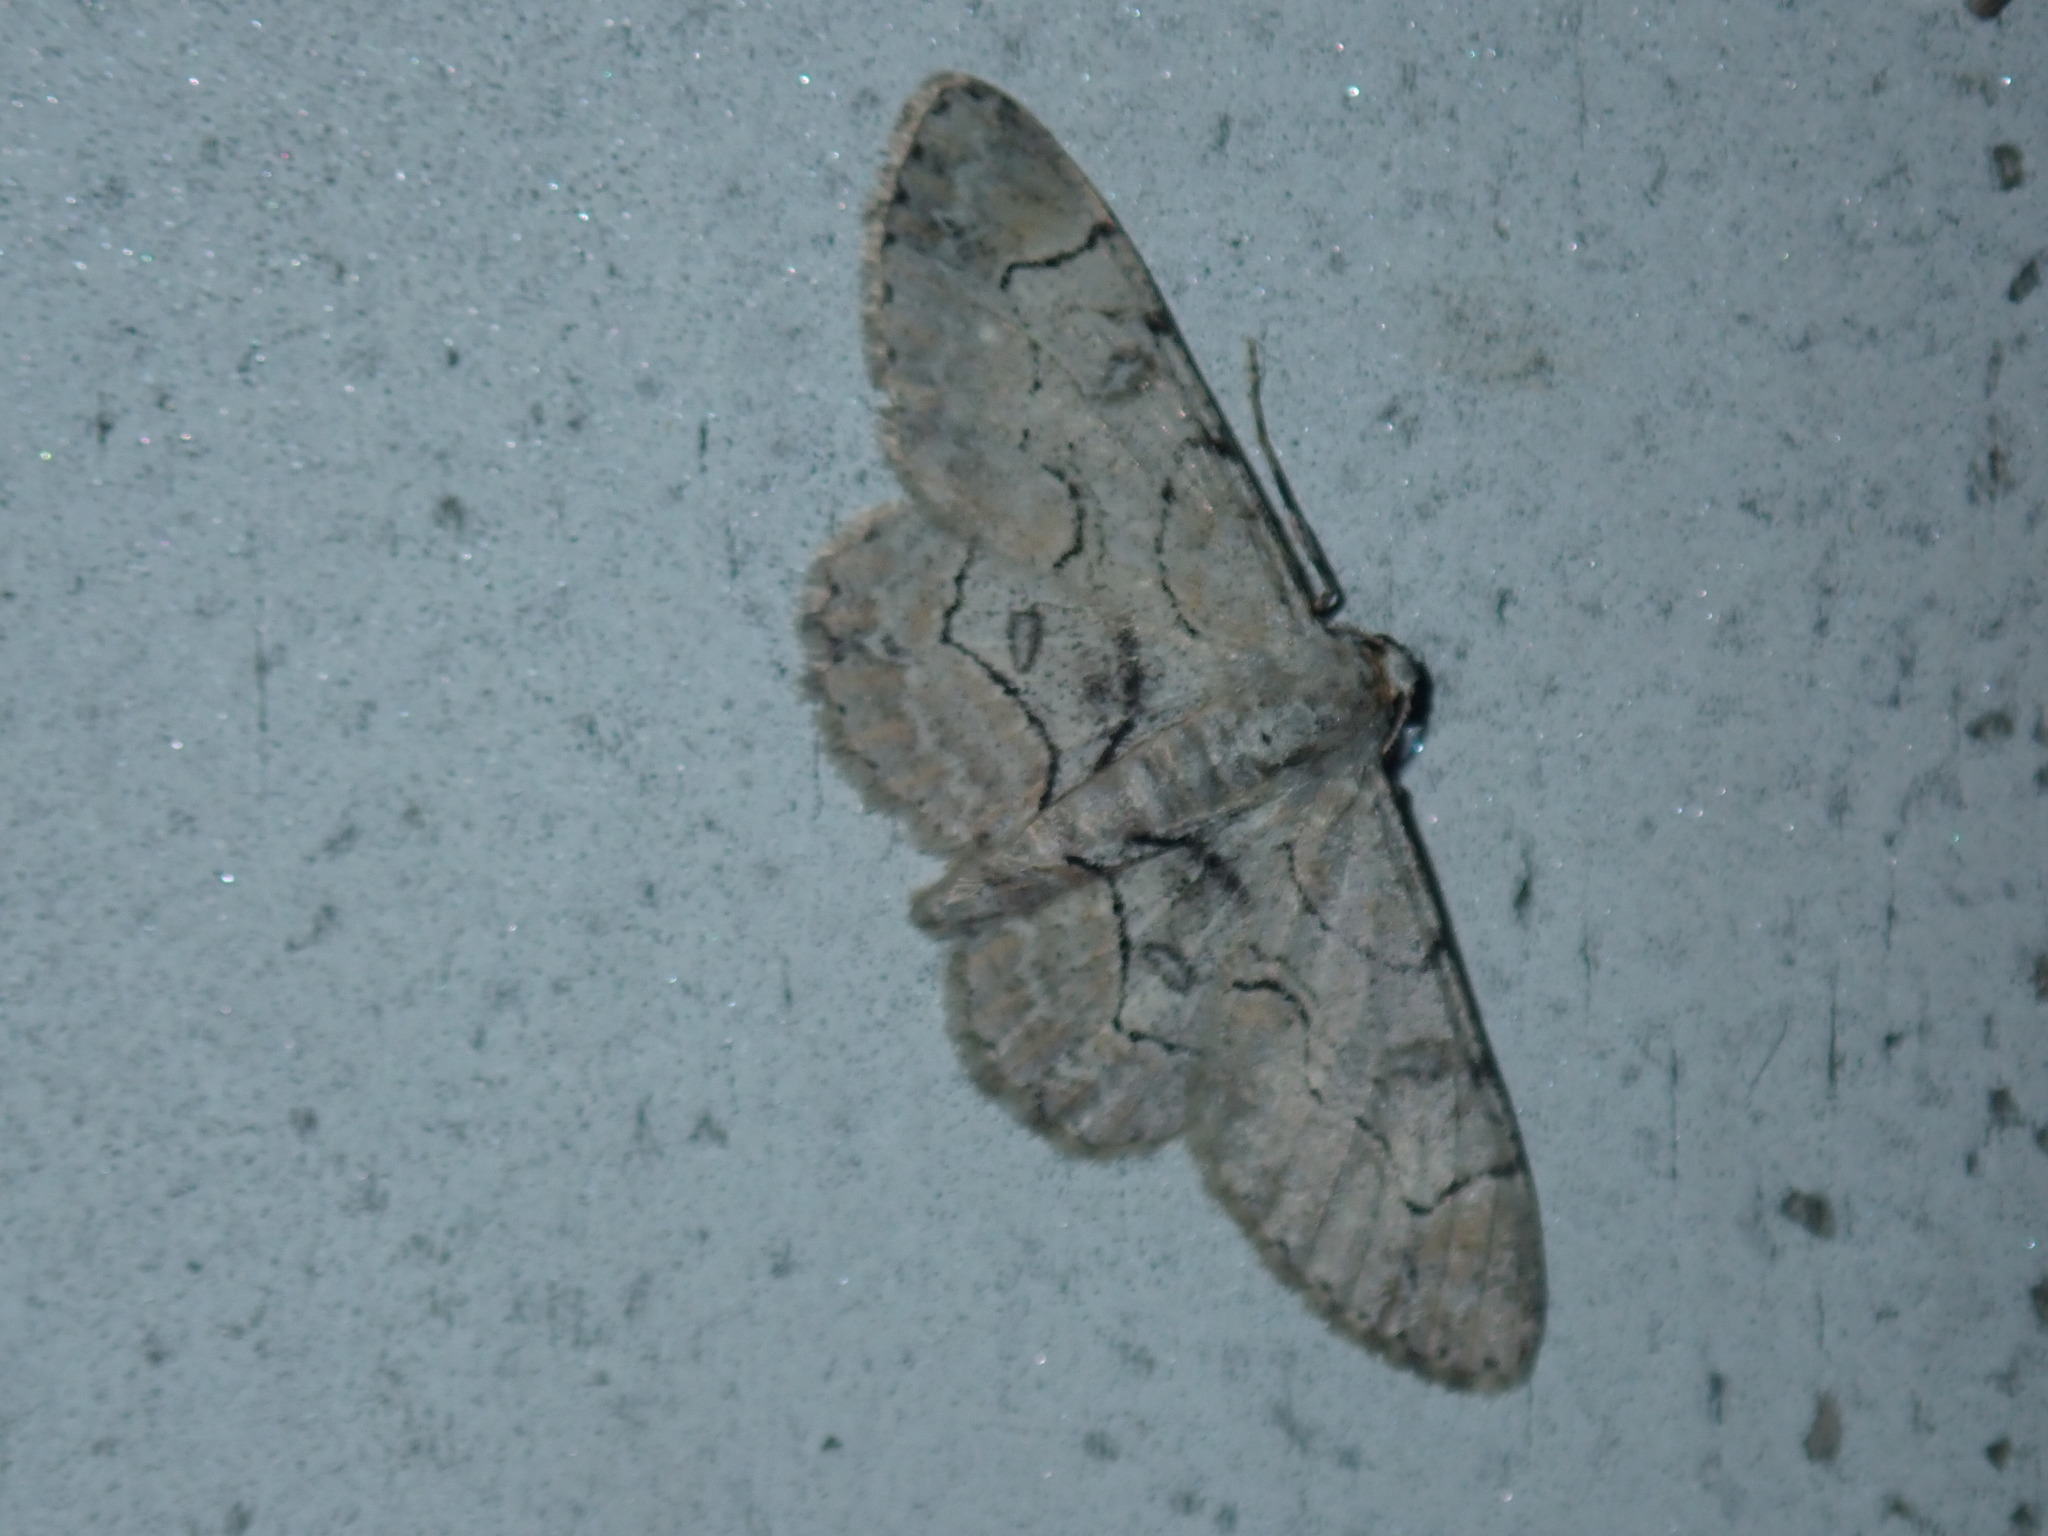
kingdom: Animalia
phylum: Arthropoda
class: Insecta
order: Lepidoptera
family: Geometridae
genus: Iridopsis
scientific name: Iridopsis larvaria
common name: Bent-line gray
